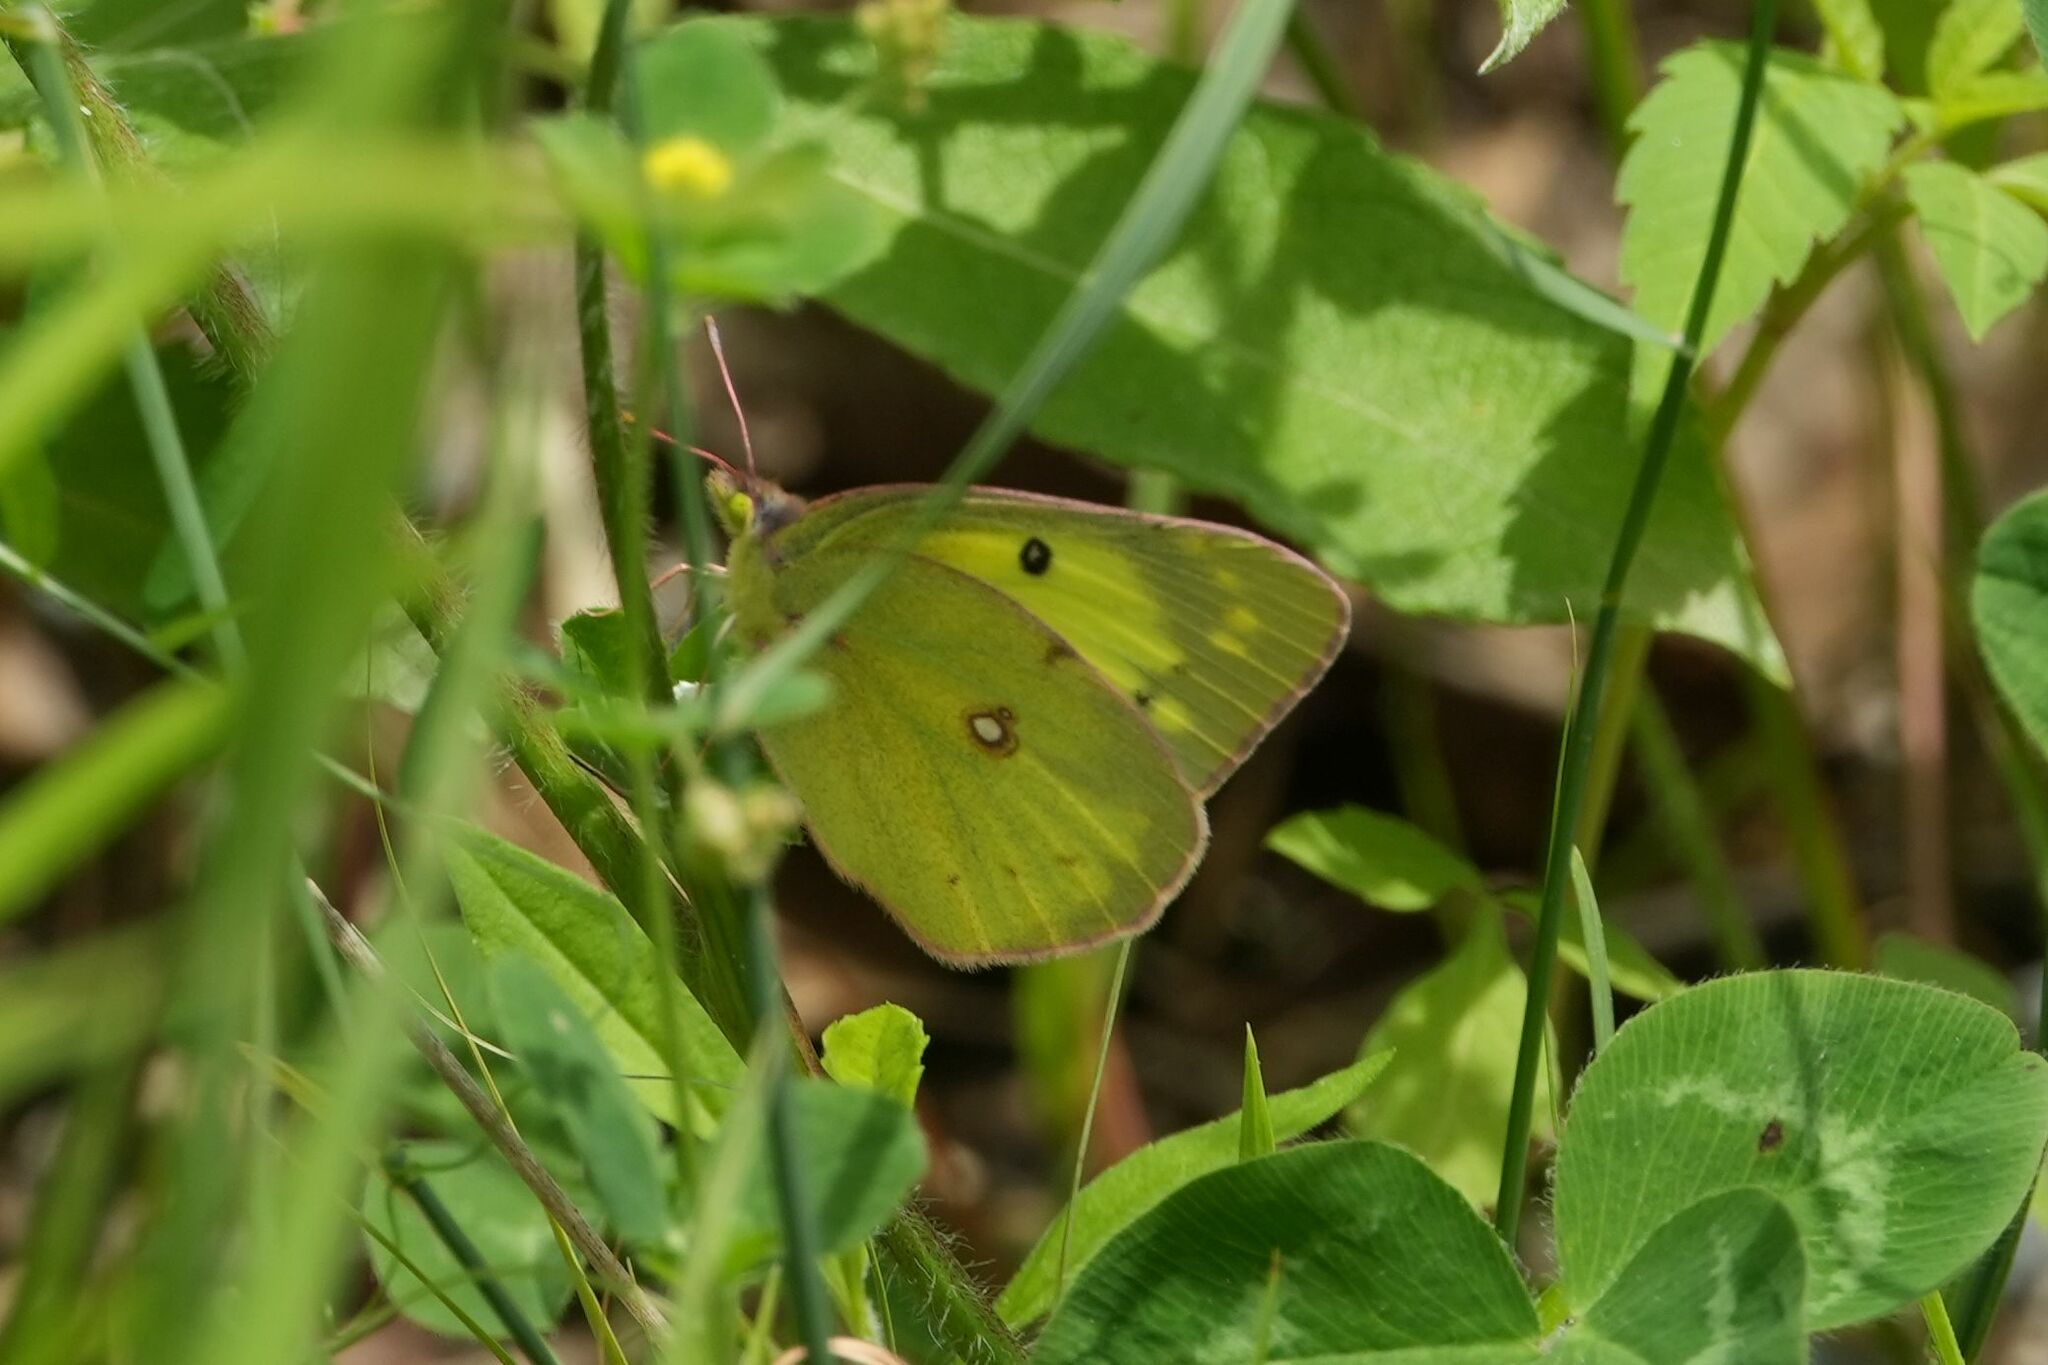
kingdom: Animalia
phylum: Arthropoda
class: Insecta
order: Lepidoptera
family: Pieridae
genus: Colias
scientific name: Colias philodice
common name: Clouded sulphur
